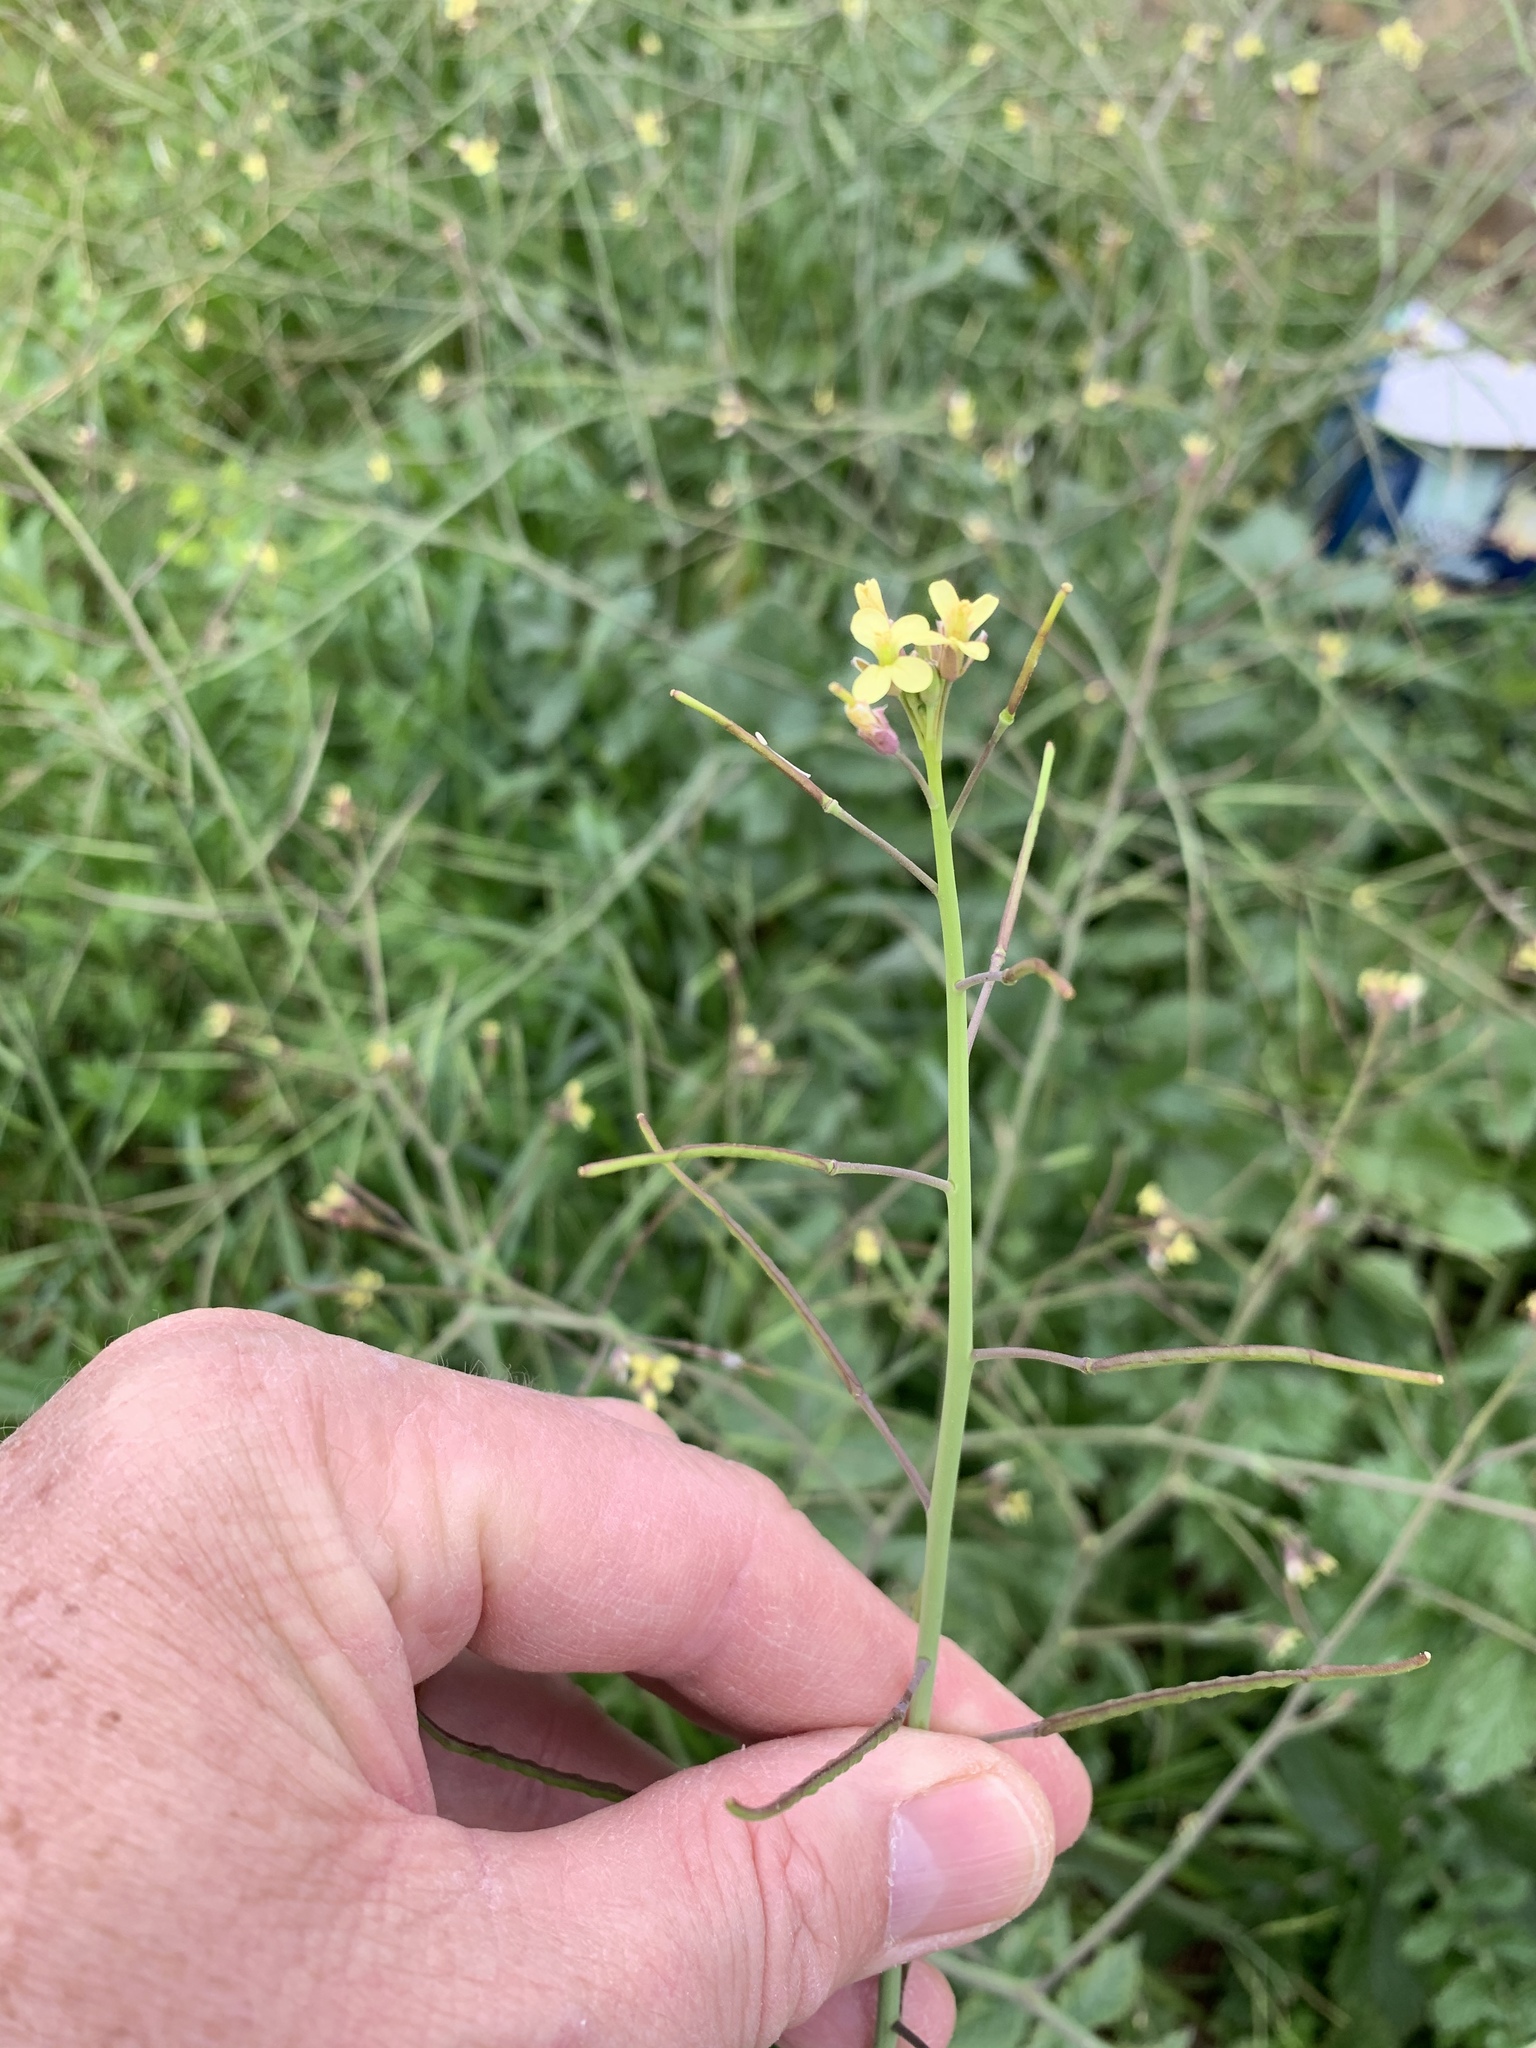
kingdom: Plantae
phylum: Tracheophyta
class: Magnoliopsida
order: Brassicales
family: Brassicaceae
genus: Brassica
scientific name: Brassica tournefortii
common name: Pale cabbage
